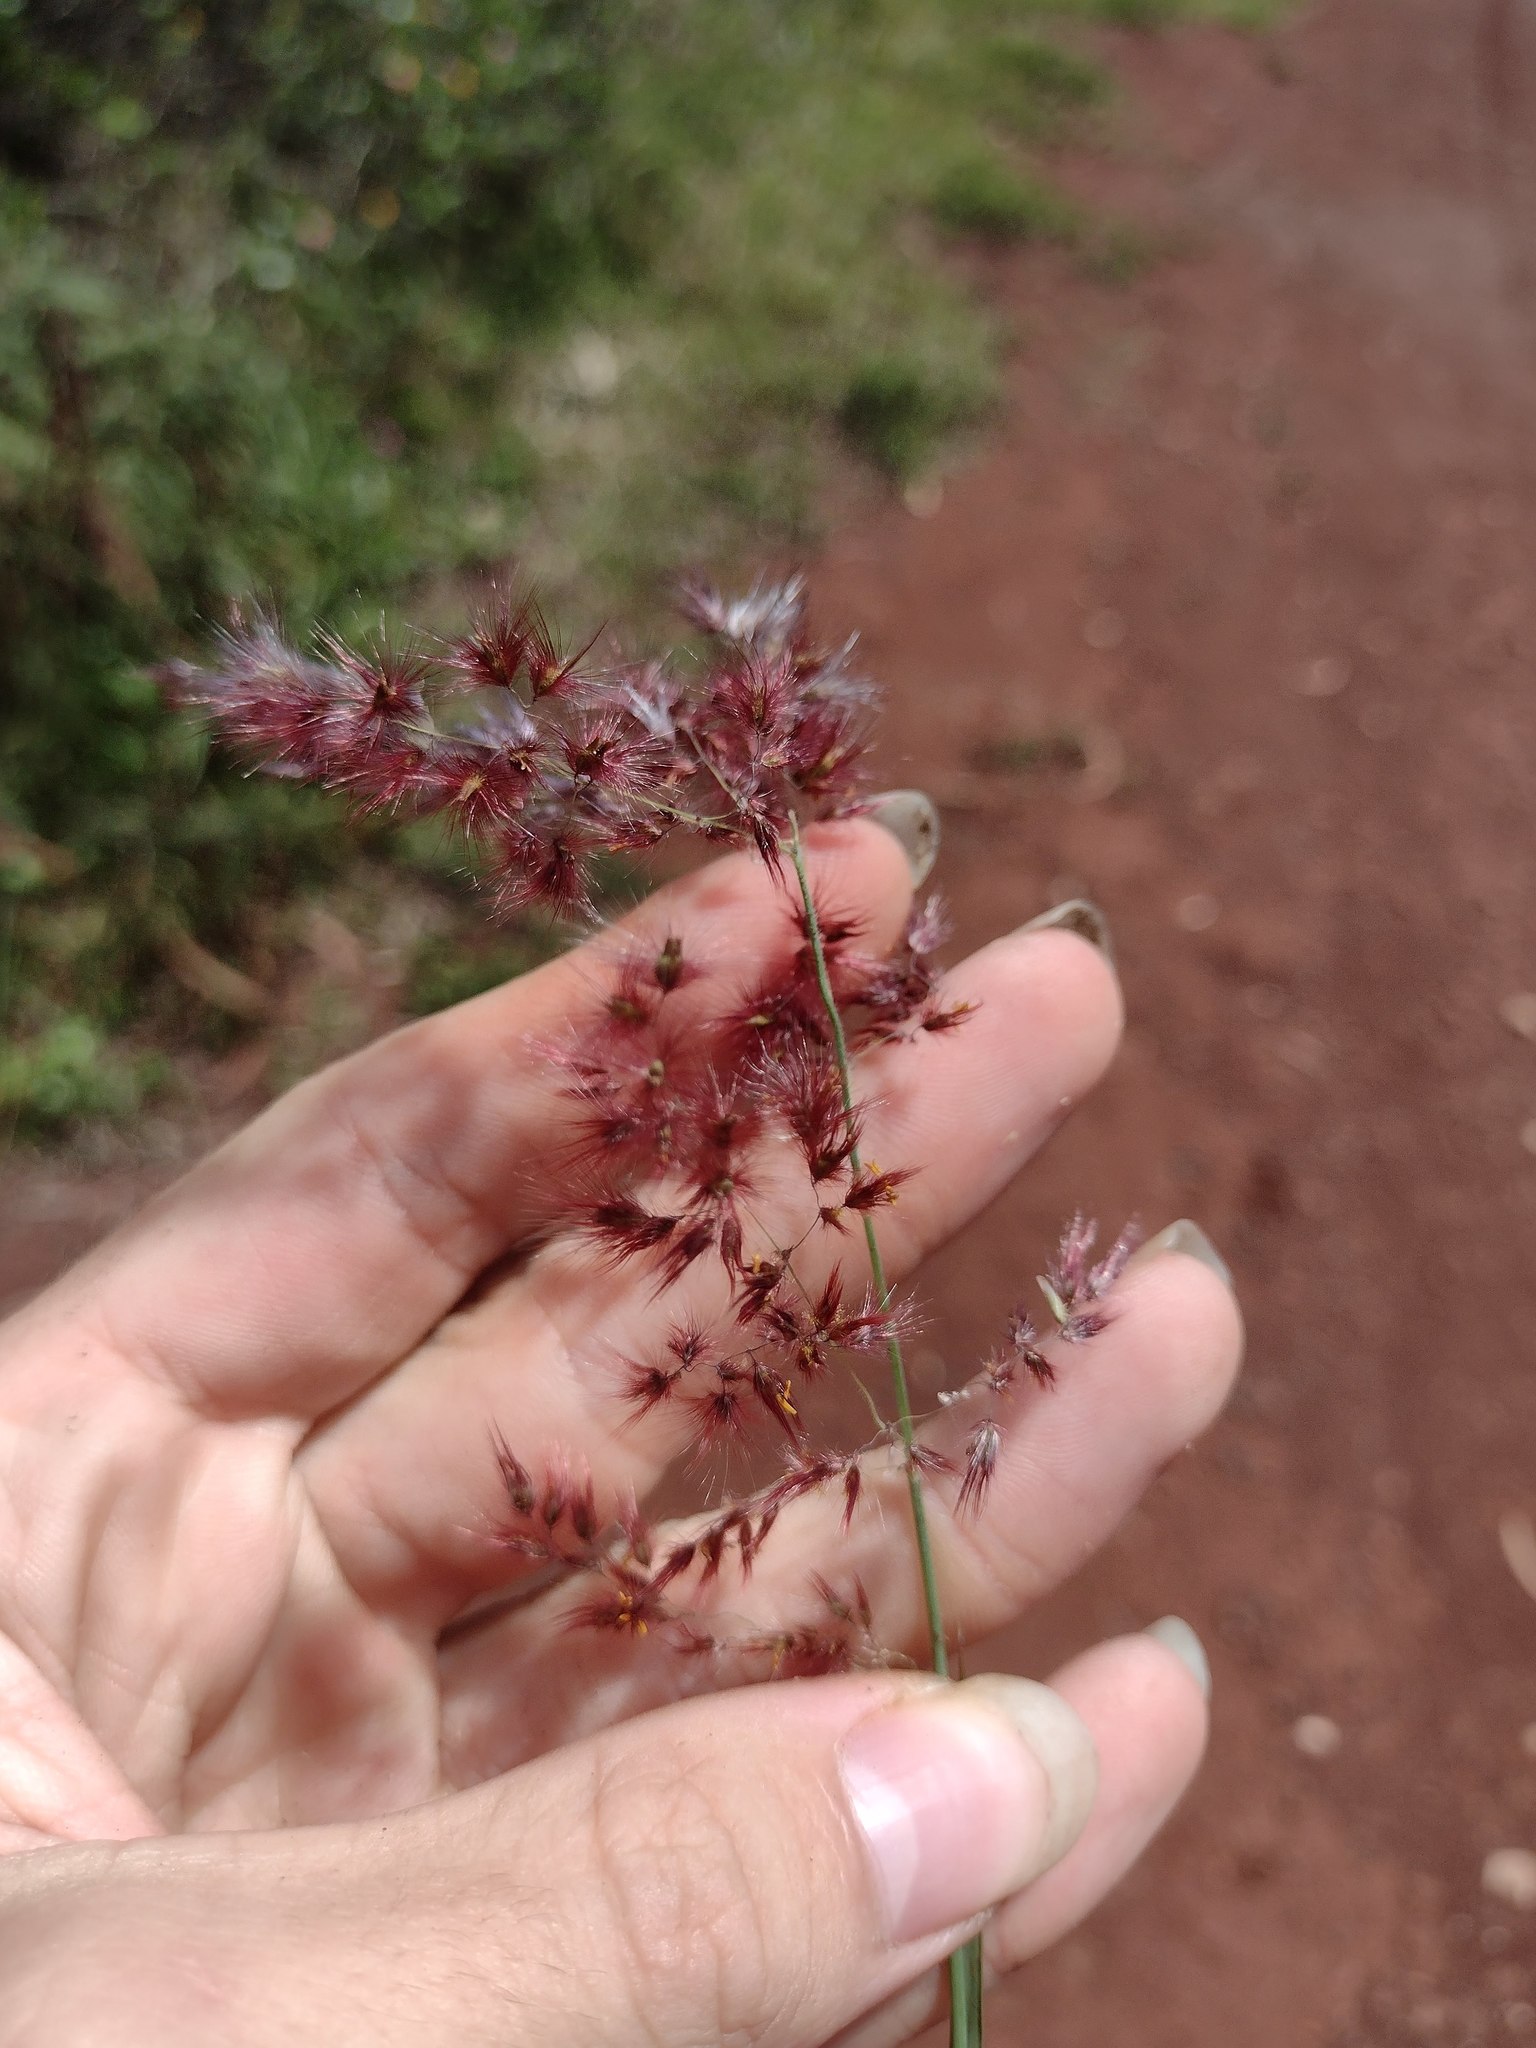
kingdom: Plantae
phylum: Tracheophyta
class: Liliopsida
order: Poales
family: Poaceae
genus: Melinis
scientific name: Melinis repens
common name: Rose natal grass
